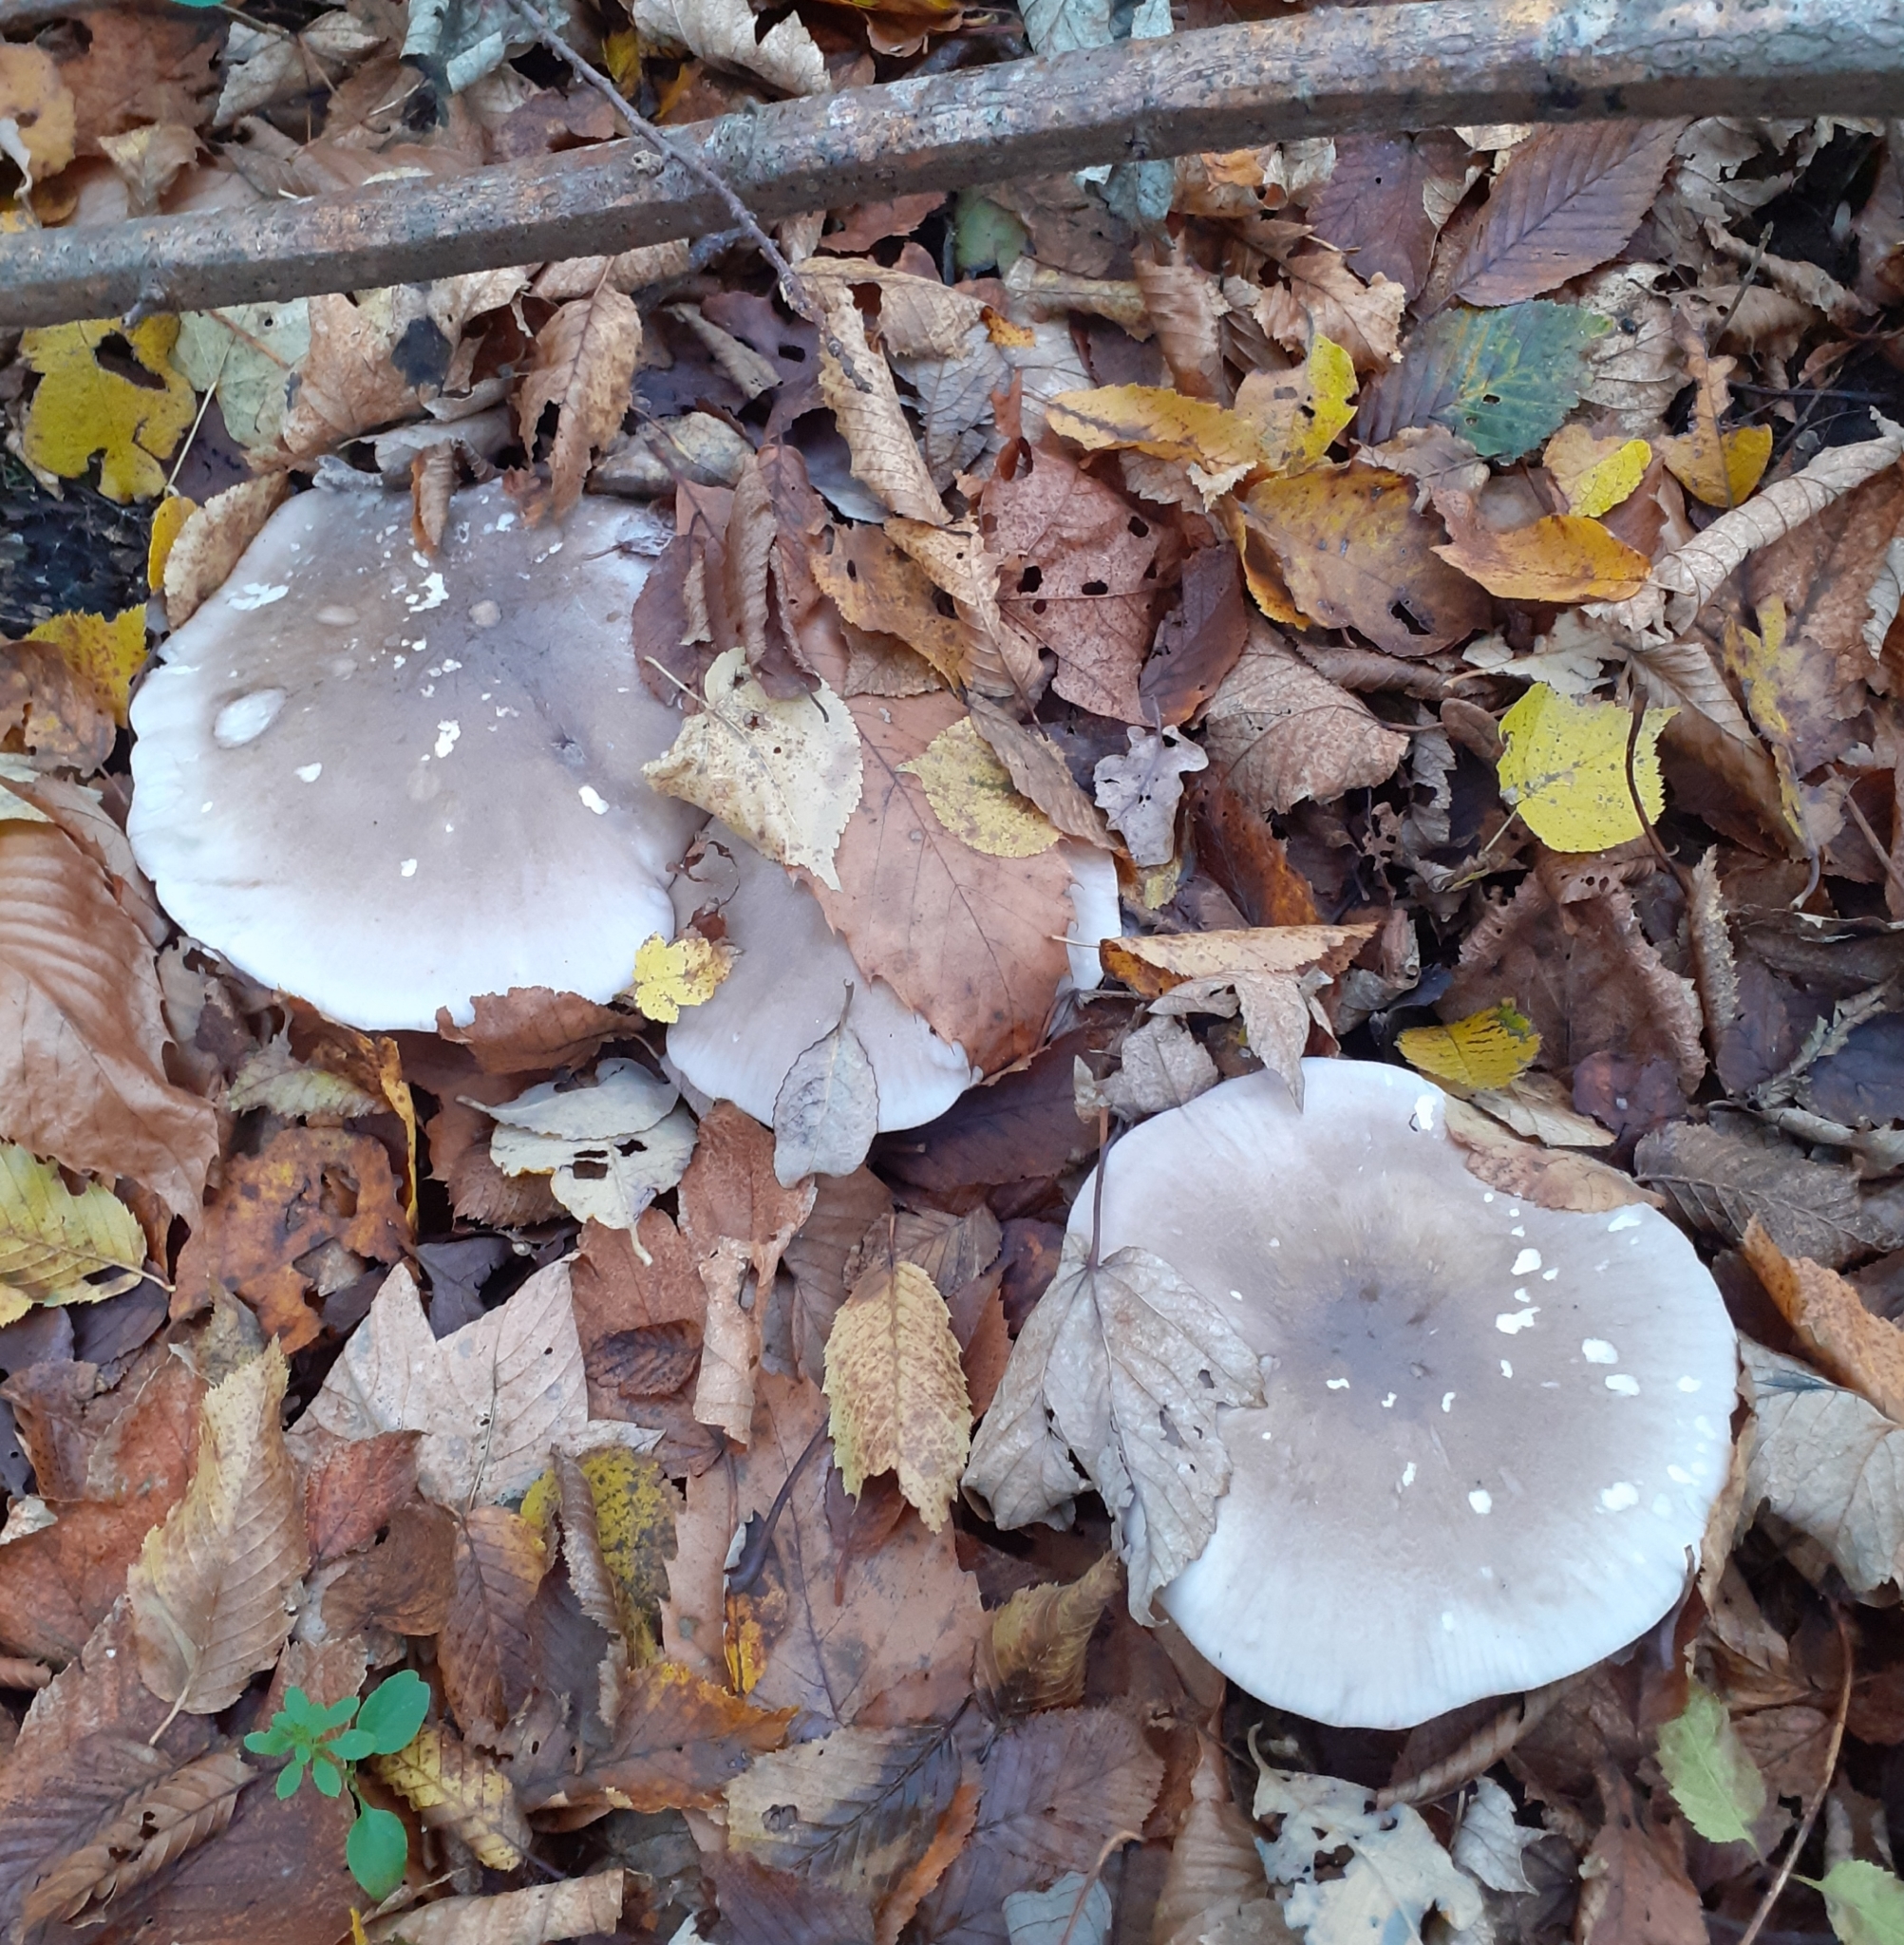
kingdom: Fungi
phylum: Basidiomycota
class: Agaricomycetes
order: Agaricales
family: Tricholomataceae
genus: Clitocybe
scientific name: Clitocybe nebularis
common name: Clouded agaric
